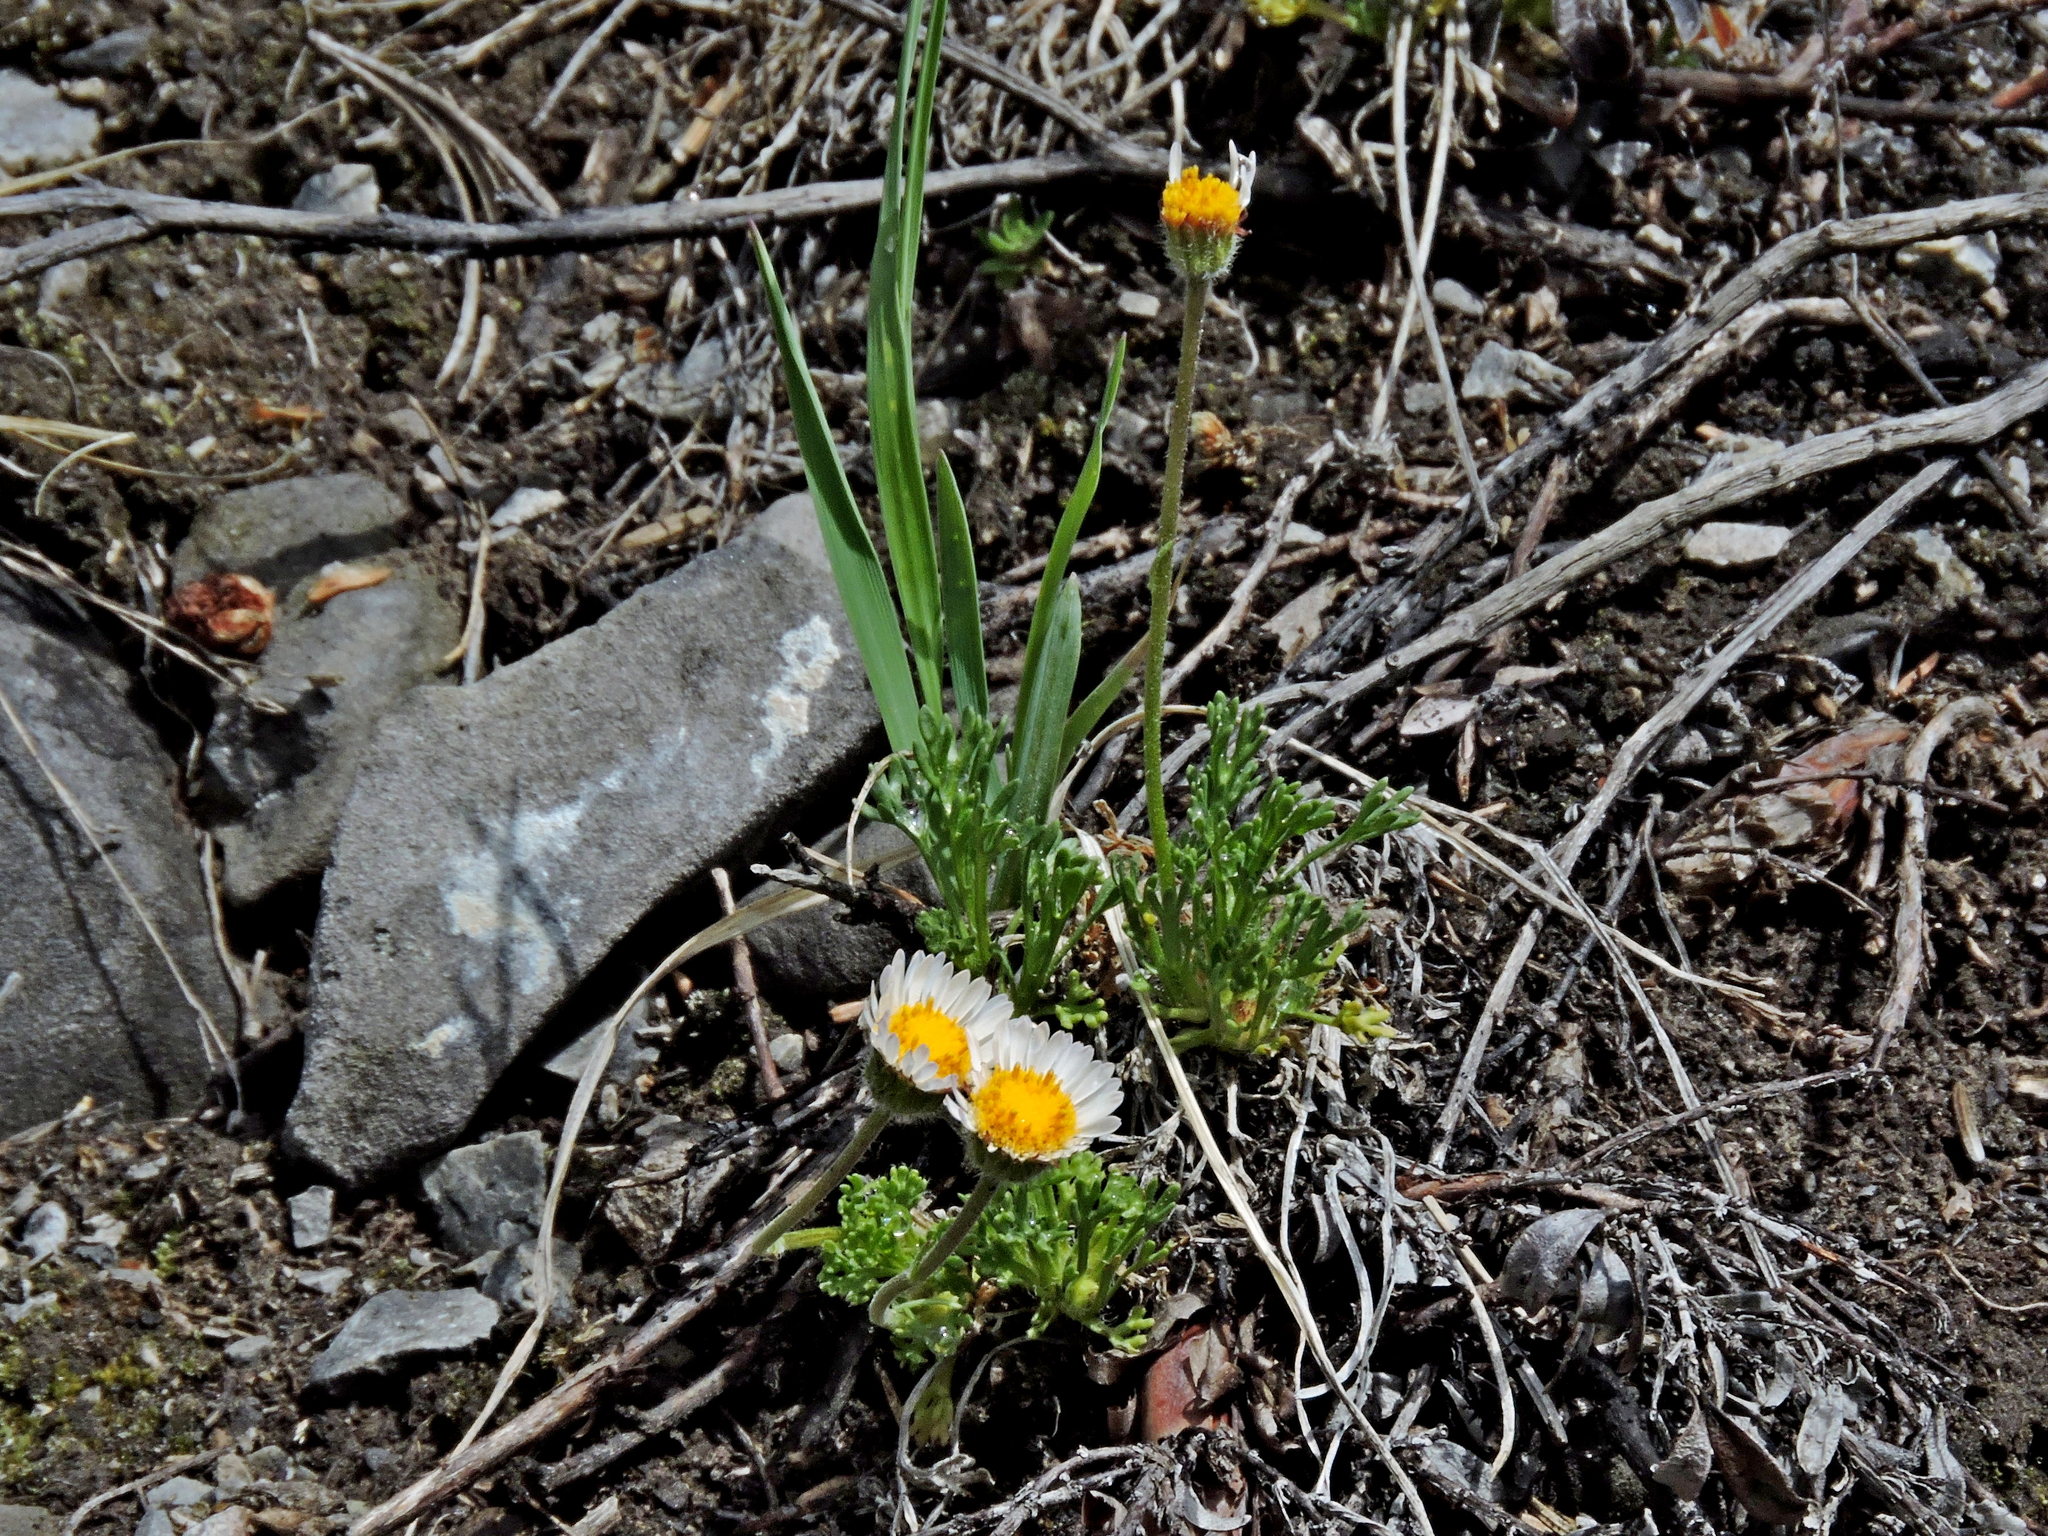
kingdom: Plantae
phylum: Tracheophyta
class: Magnoliopsida
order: Asterales
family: Asteraceae
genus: Erigeron
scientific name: Erigeron compositus
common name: Dwarf mountain fleabane
